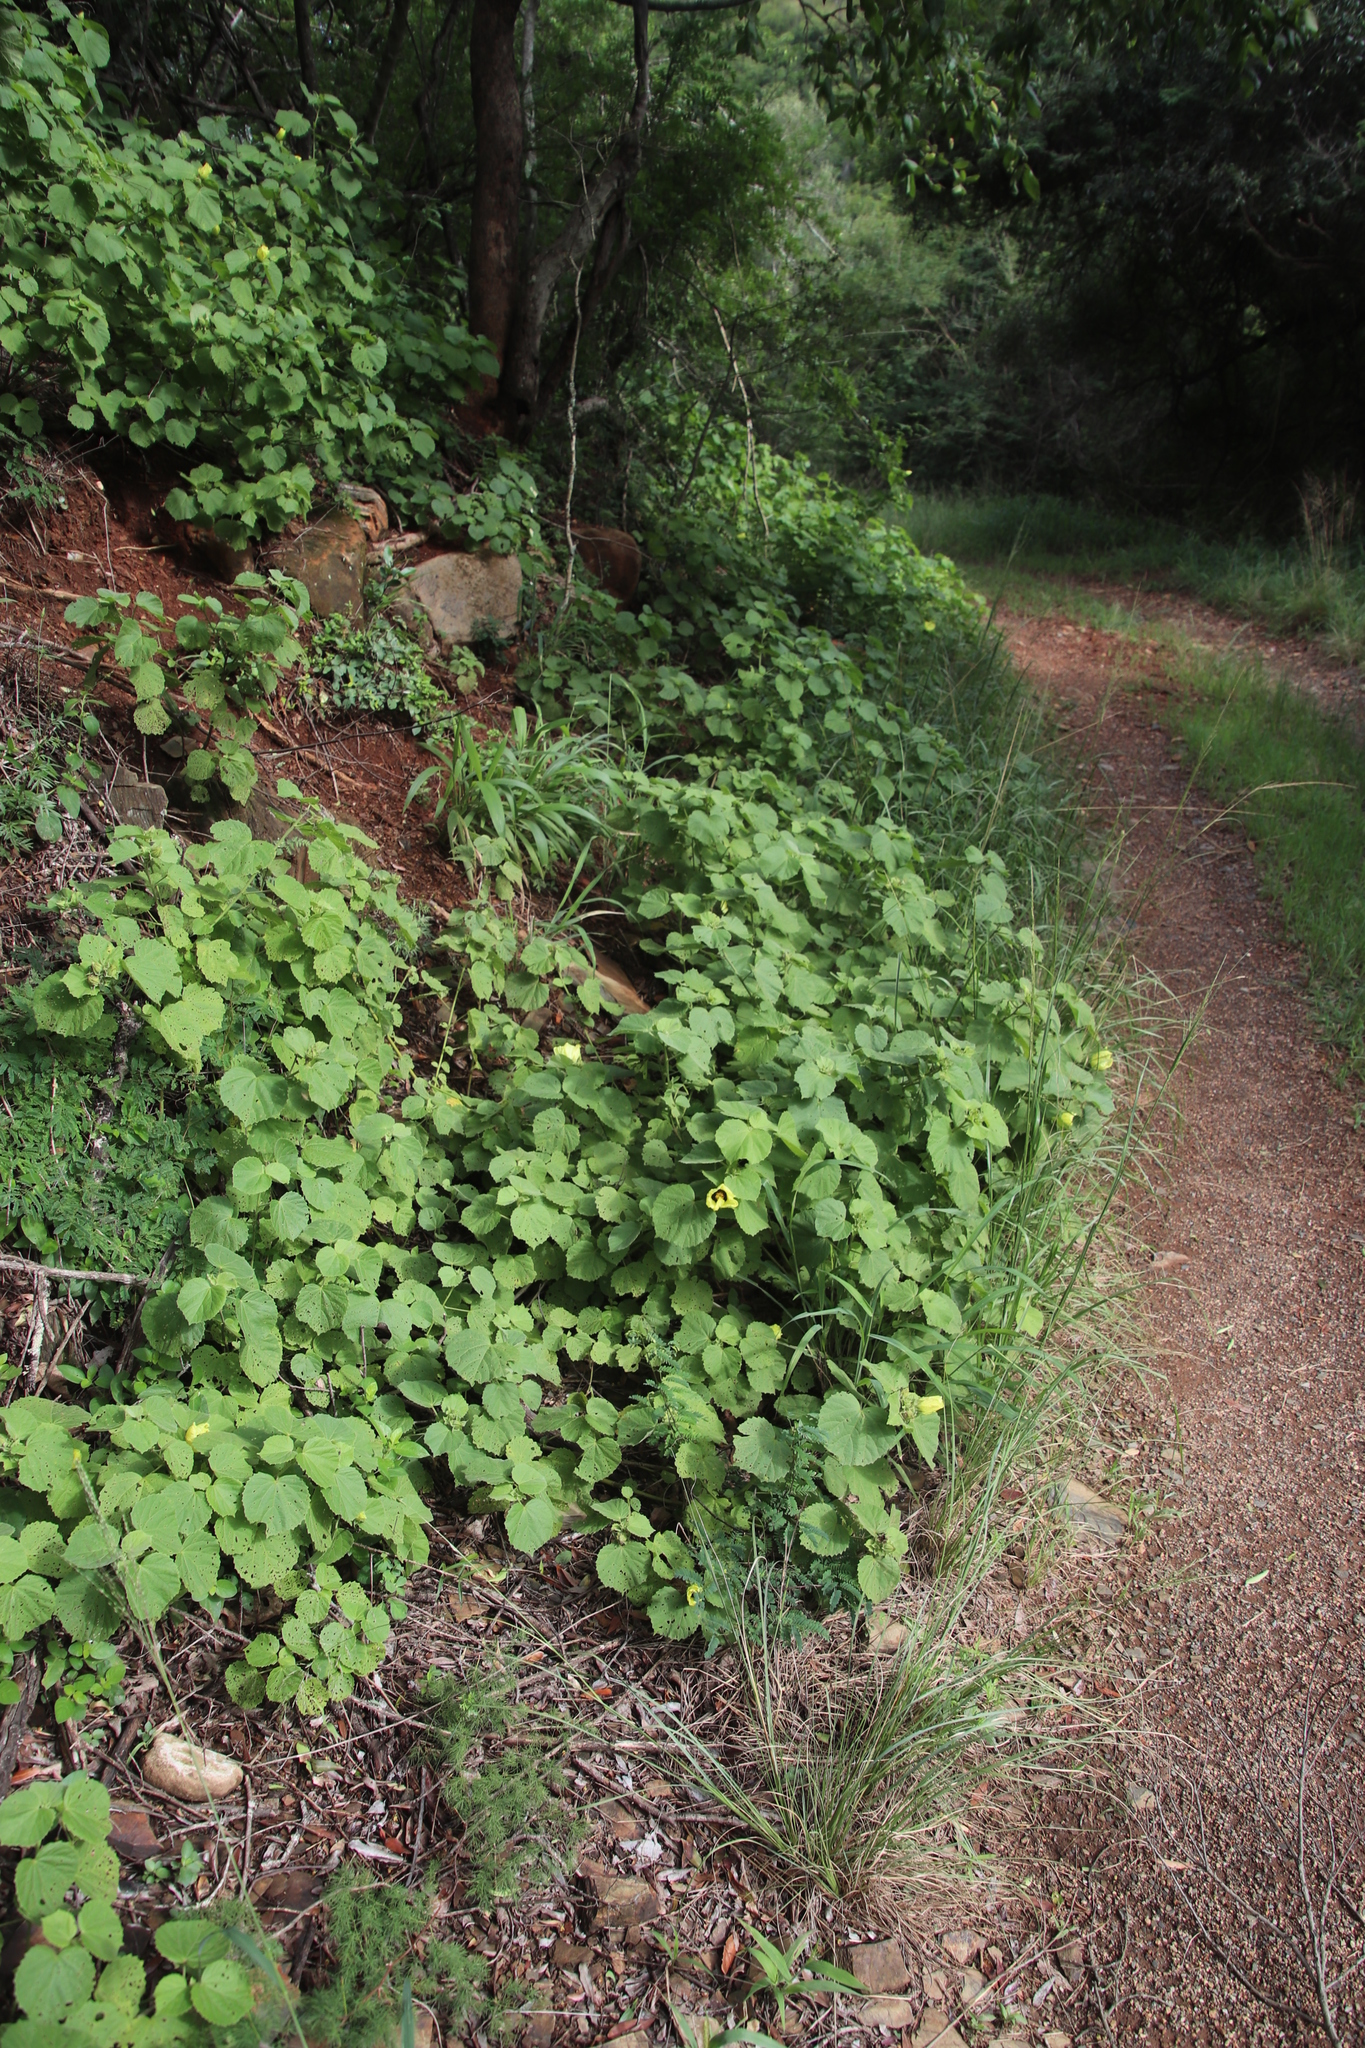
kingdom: Plantae
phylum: Tracheophyta
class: Magnoliopsida
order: Malvales
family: Malvaceae
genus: Hibiscus
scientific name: Hibiscus calyphyllus
